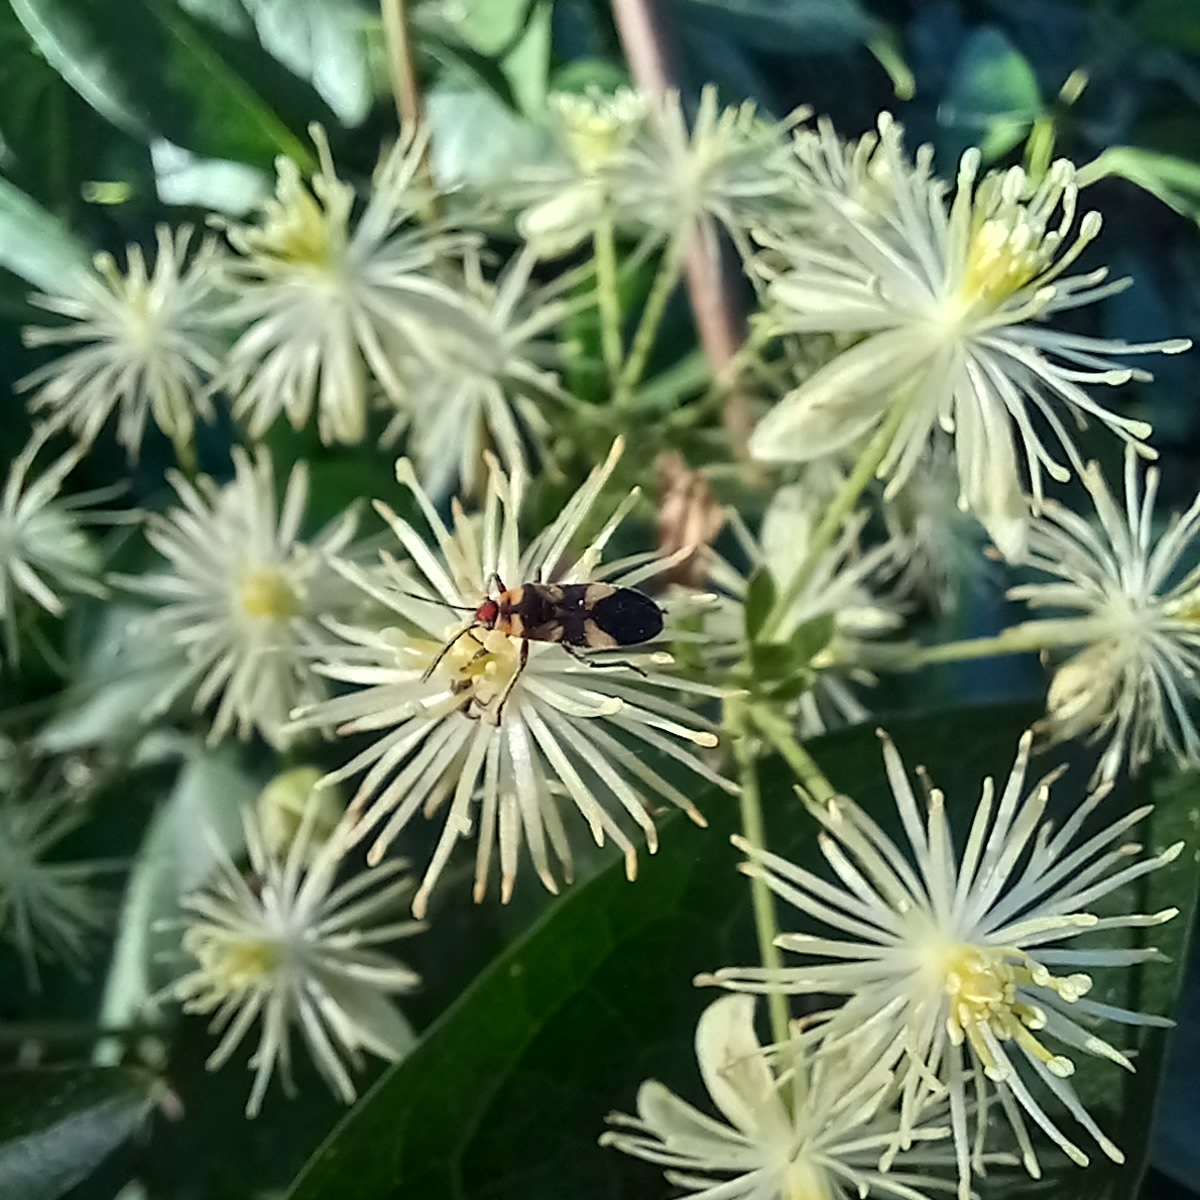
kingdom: Animalia
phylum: Arthropoda
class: Insecta
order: Hemiptera
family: Lygaeidae
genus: Oncopeltus
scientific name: Oncopeltus cingulifer
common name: Lygaeid bug
